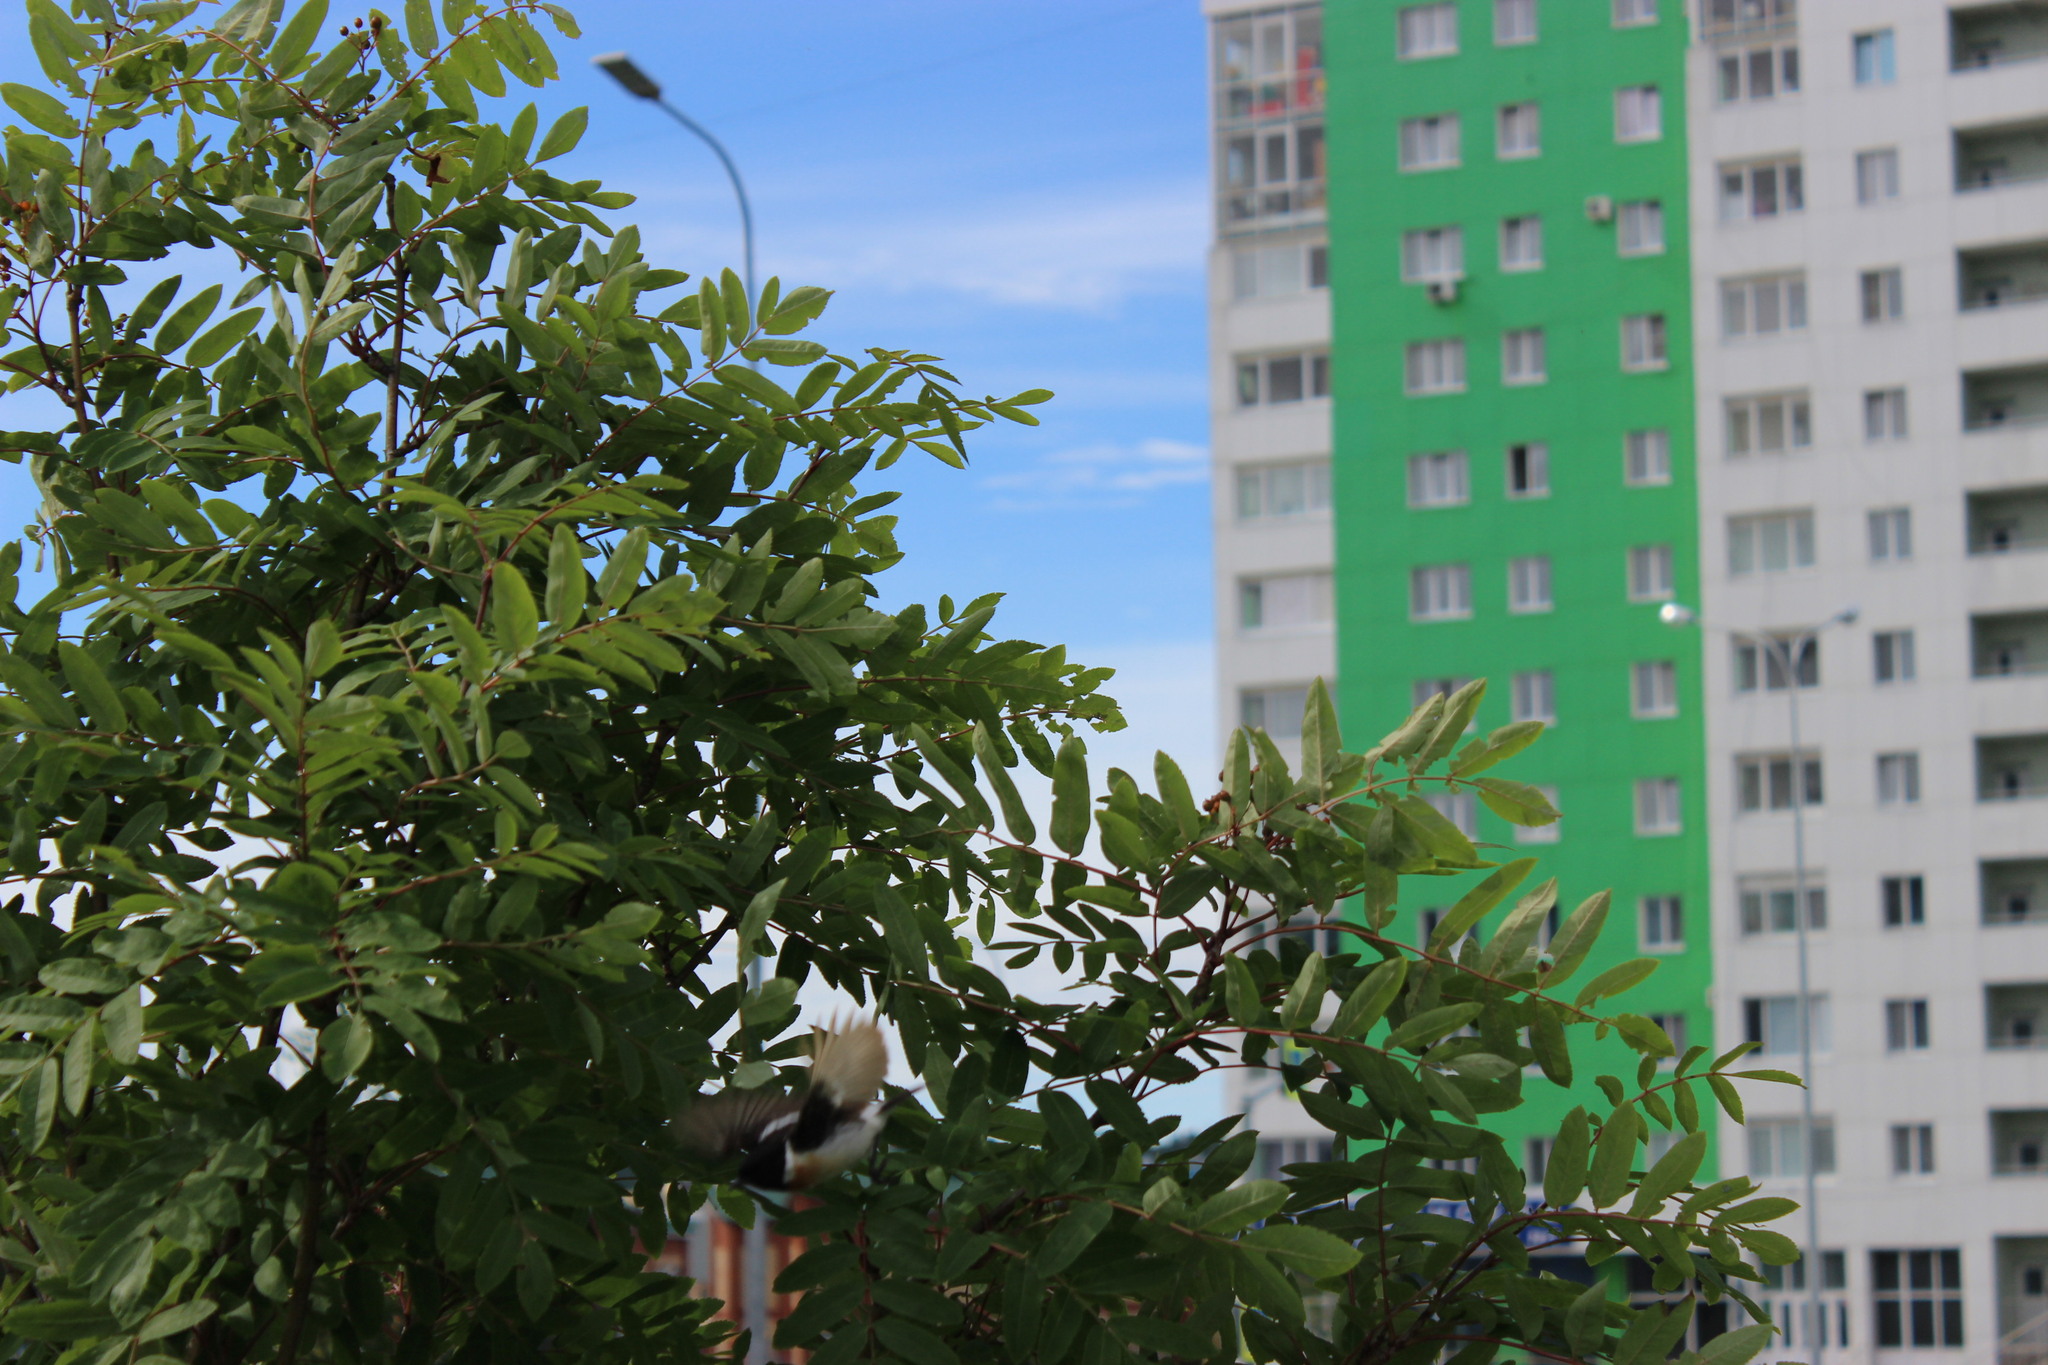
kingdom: Animalia
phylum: Chordata
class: Aves
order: Passeriformes
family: Muscicapidae
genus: Saxicola
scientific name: Saxicola maurus
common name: Siberian stonechat
